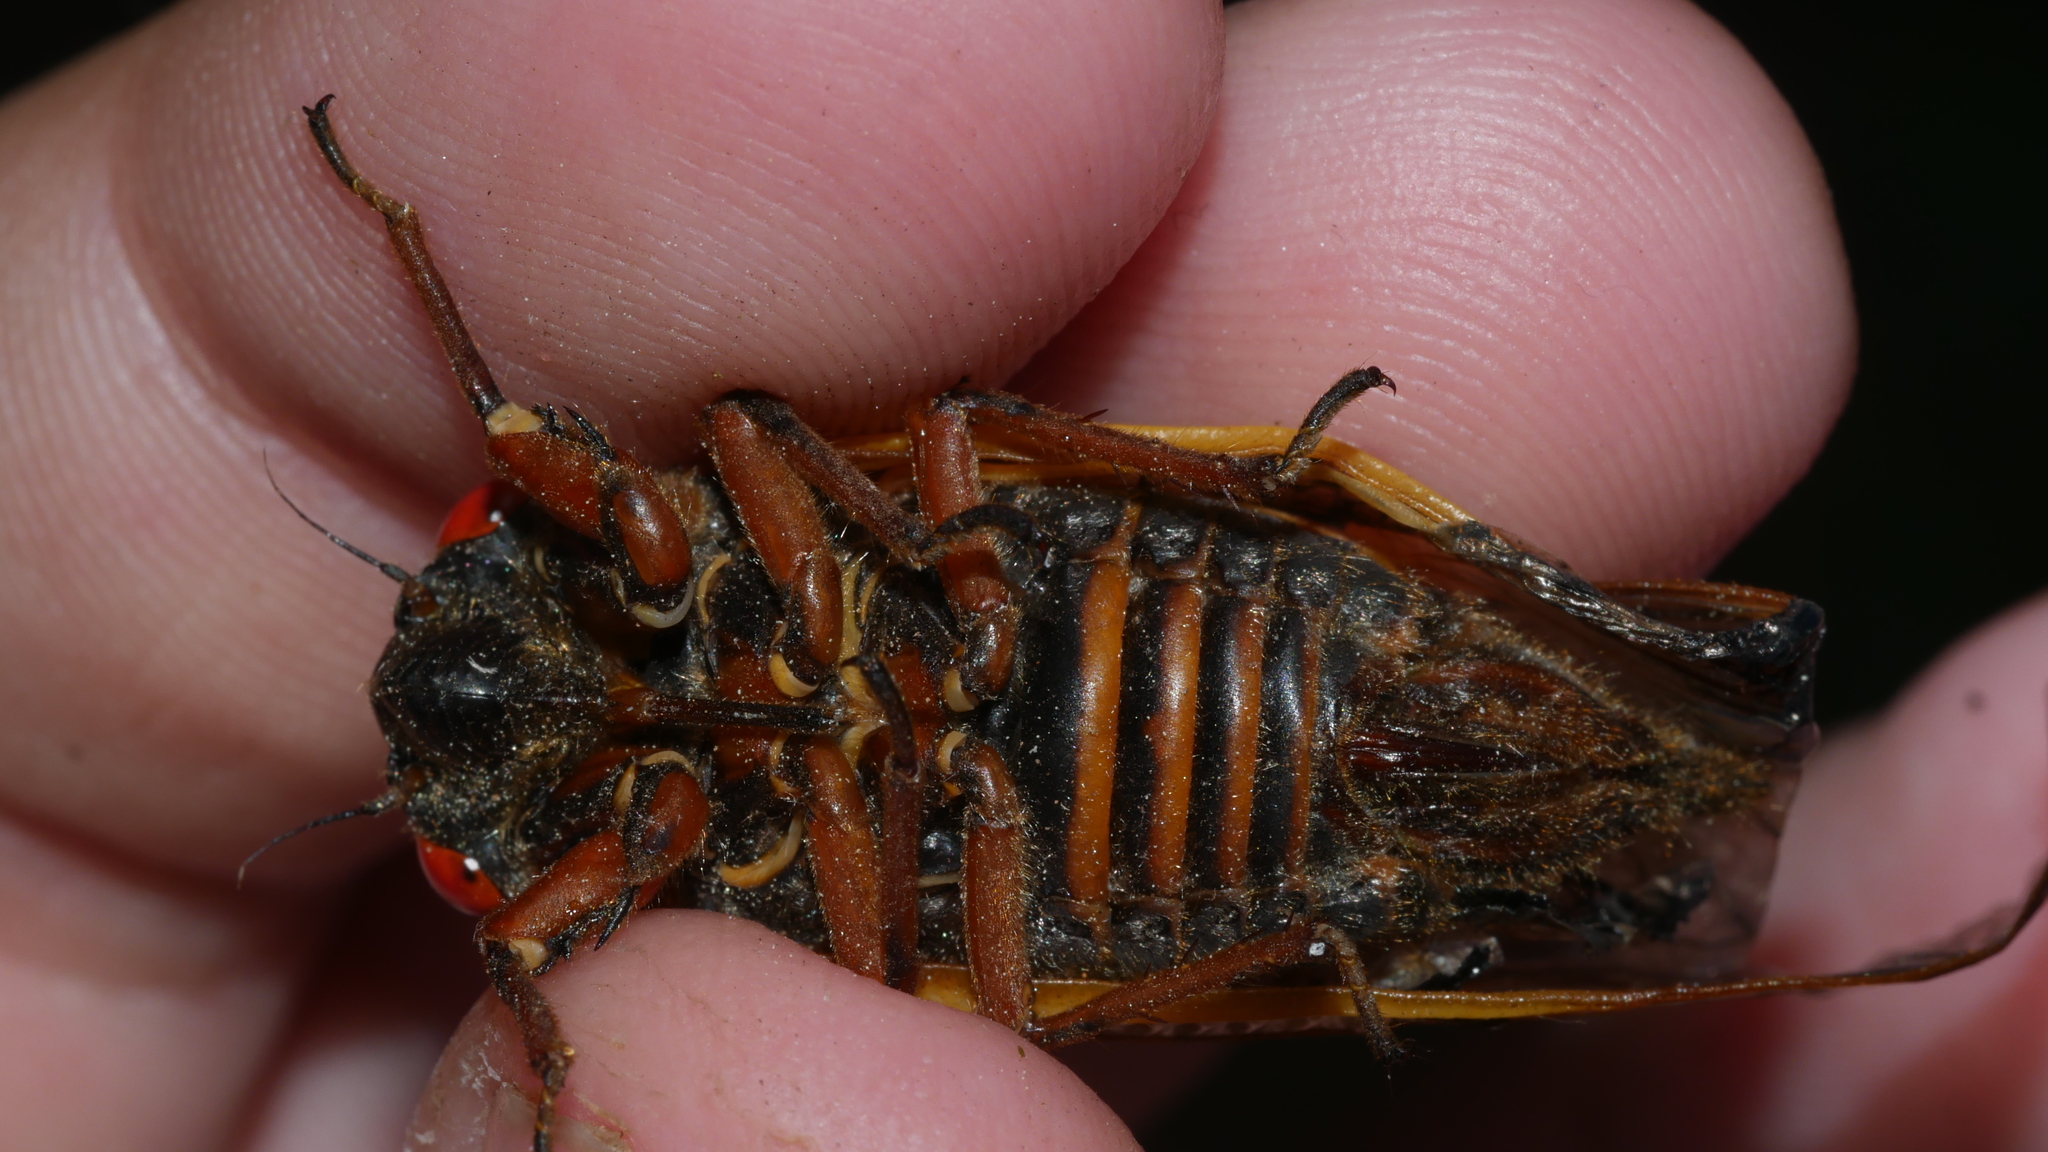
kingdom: Animalia
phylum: Arthropoda
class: Insecta
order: Hemiptera
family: Cicadidae
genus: Magicicada
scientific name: Magicicada septendecim
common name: Periodical cicada
